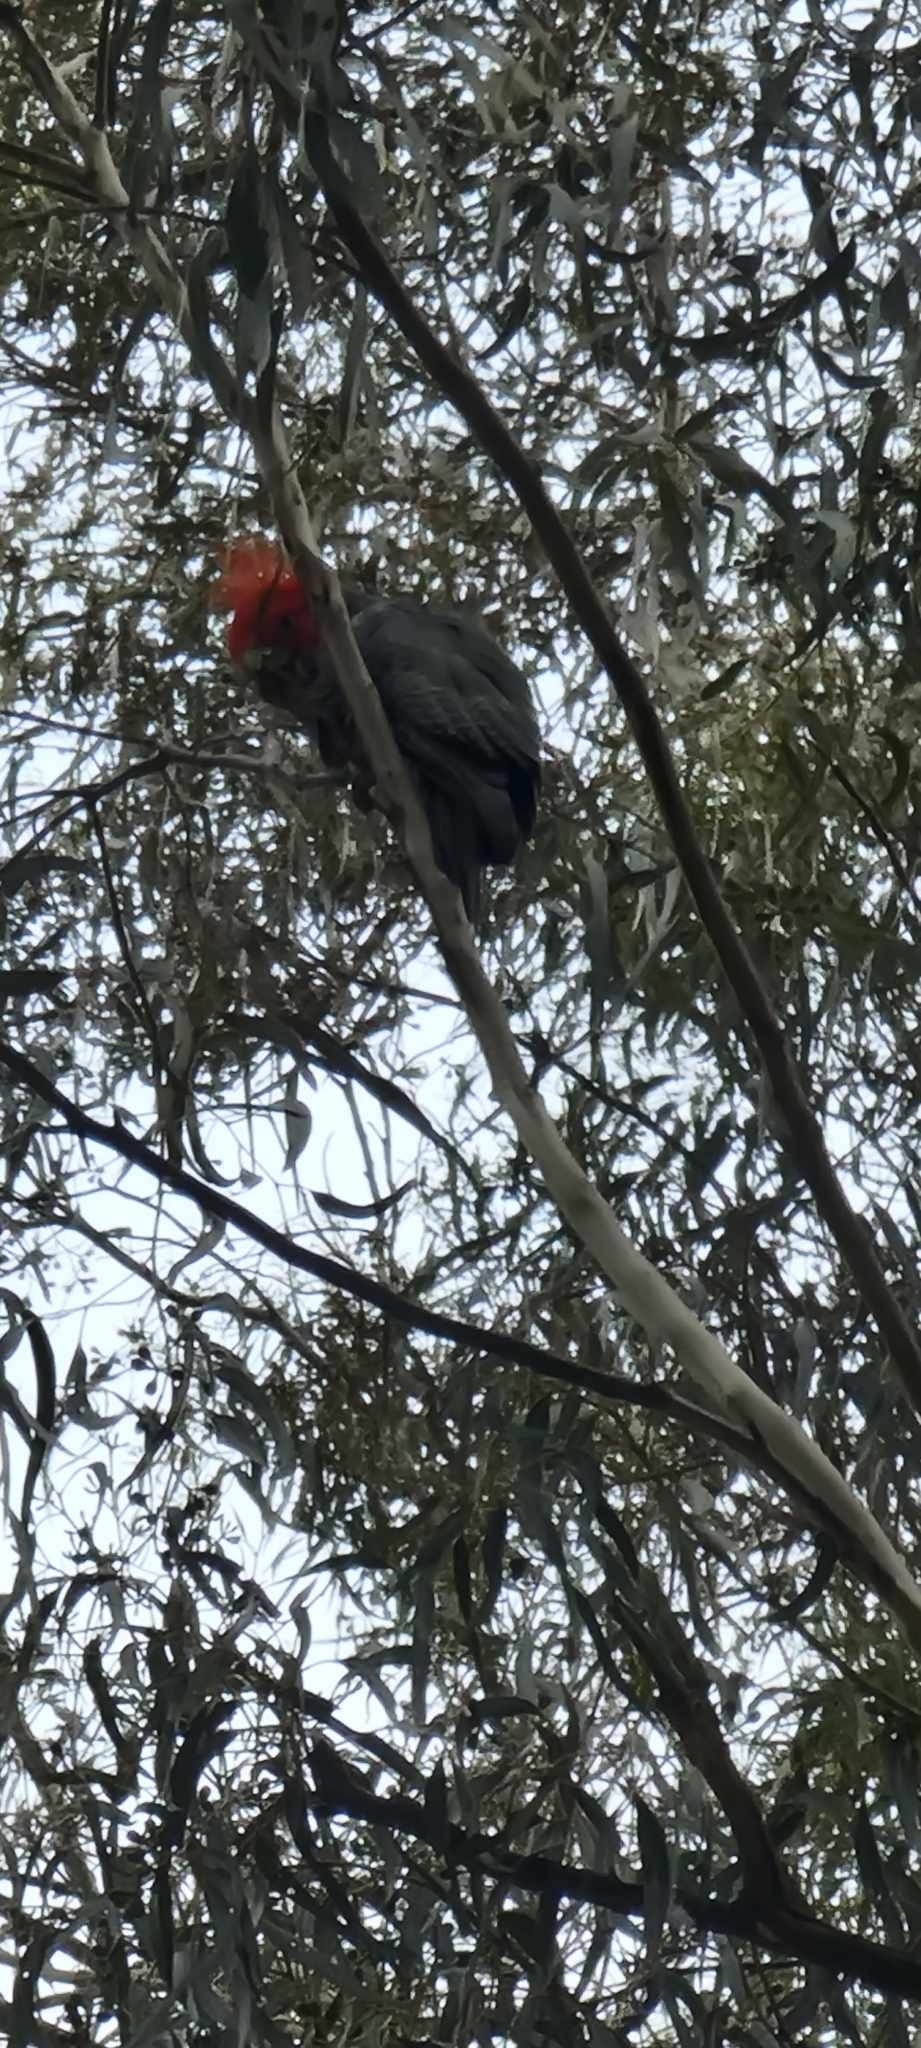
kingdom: Animalia
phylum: Chordata
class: Aves
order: Psittaciformes
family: Psittacidae
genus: Callocephalon
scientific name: Callocephalon fimbriatum
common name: Gang-gang cockatoo
